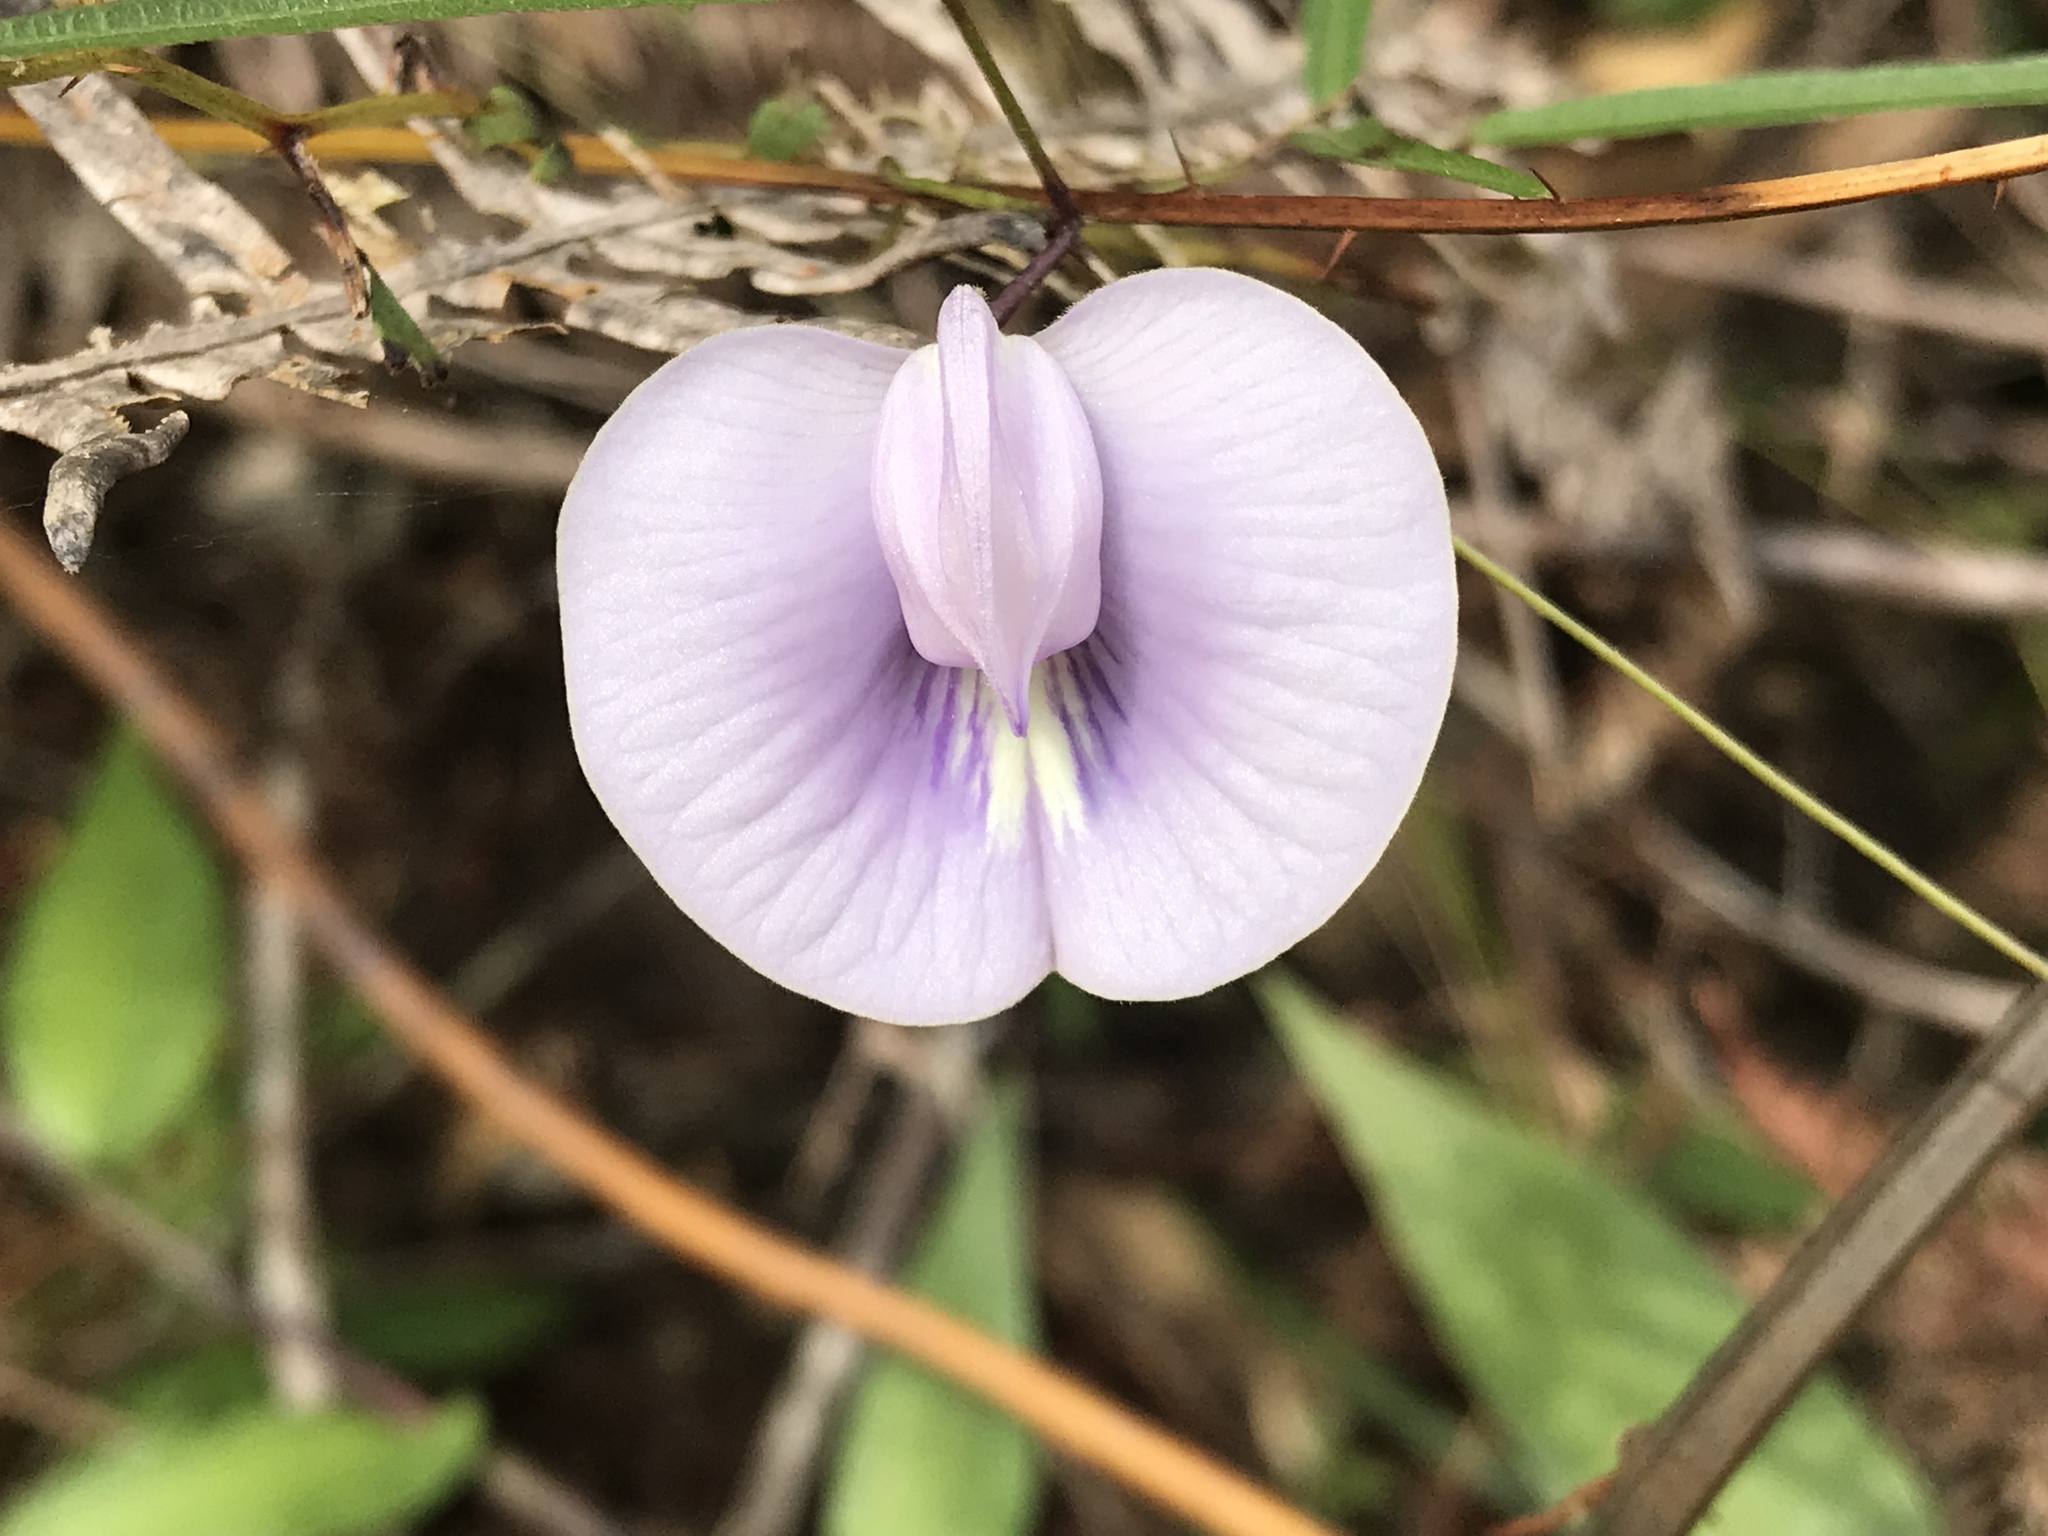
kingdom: Plantae
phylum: Tracheophyta
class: Magnoliopsida
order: Fabales
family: Fabaceae
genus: Centrosema
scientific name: Centrosema virginianum
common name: Butterfly-pea
